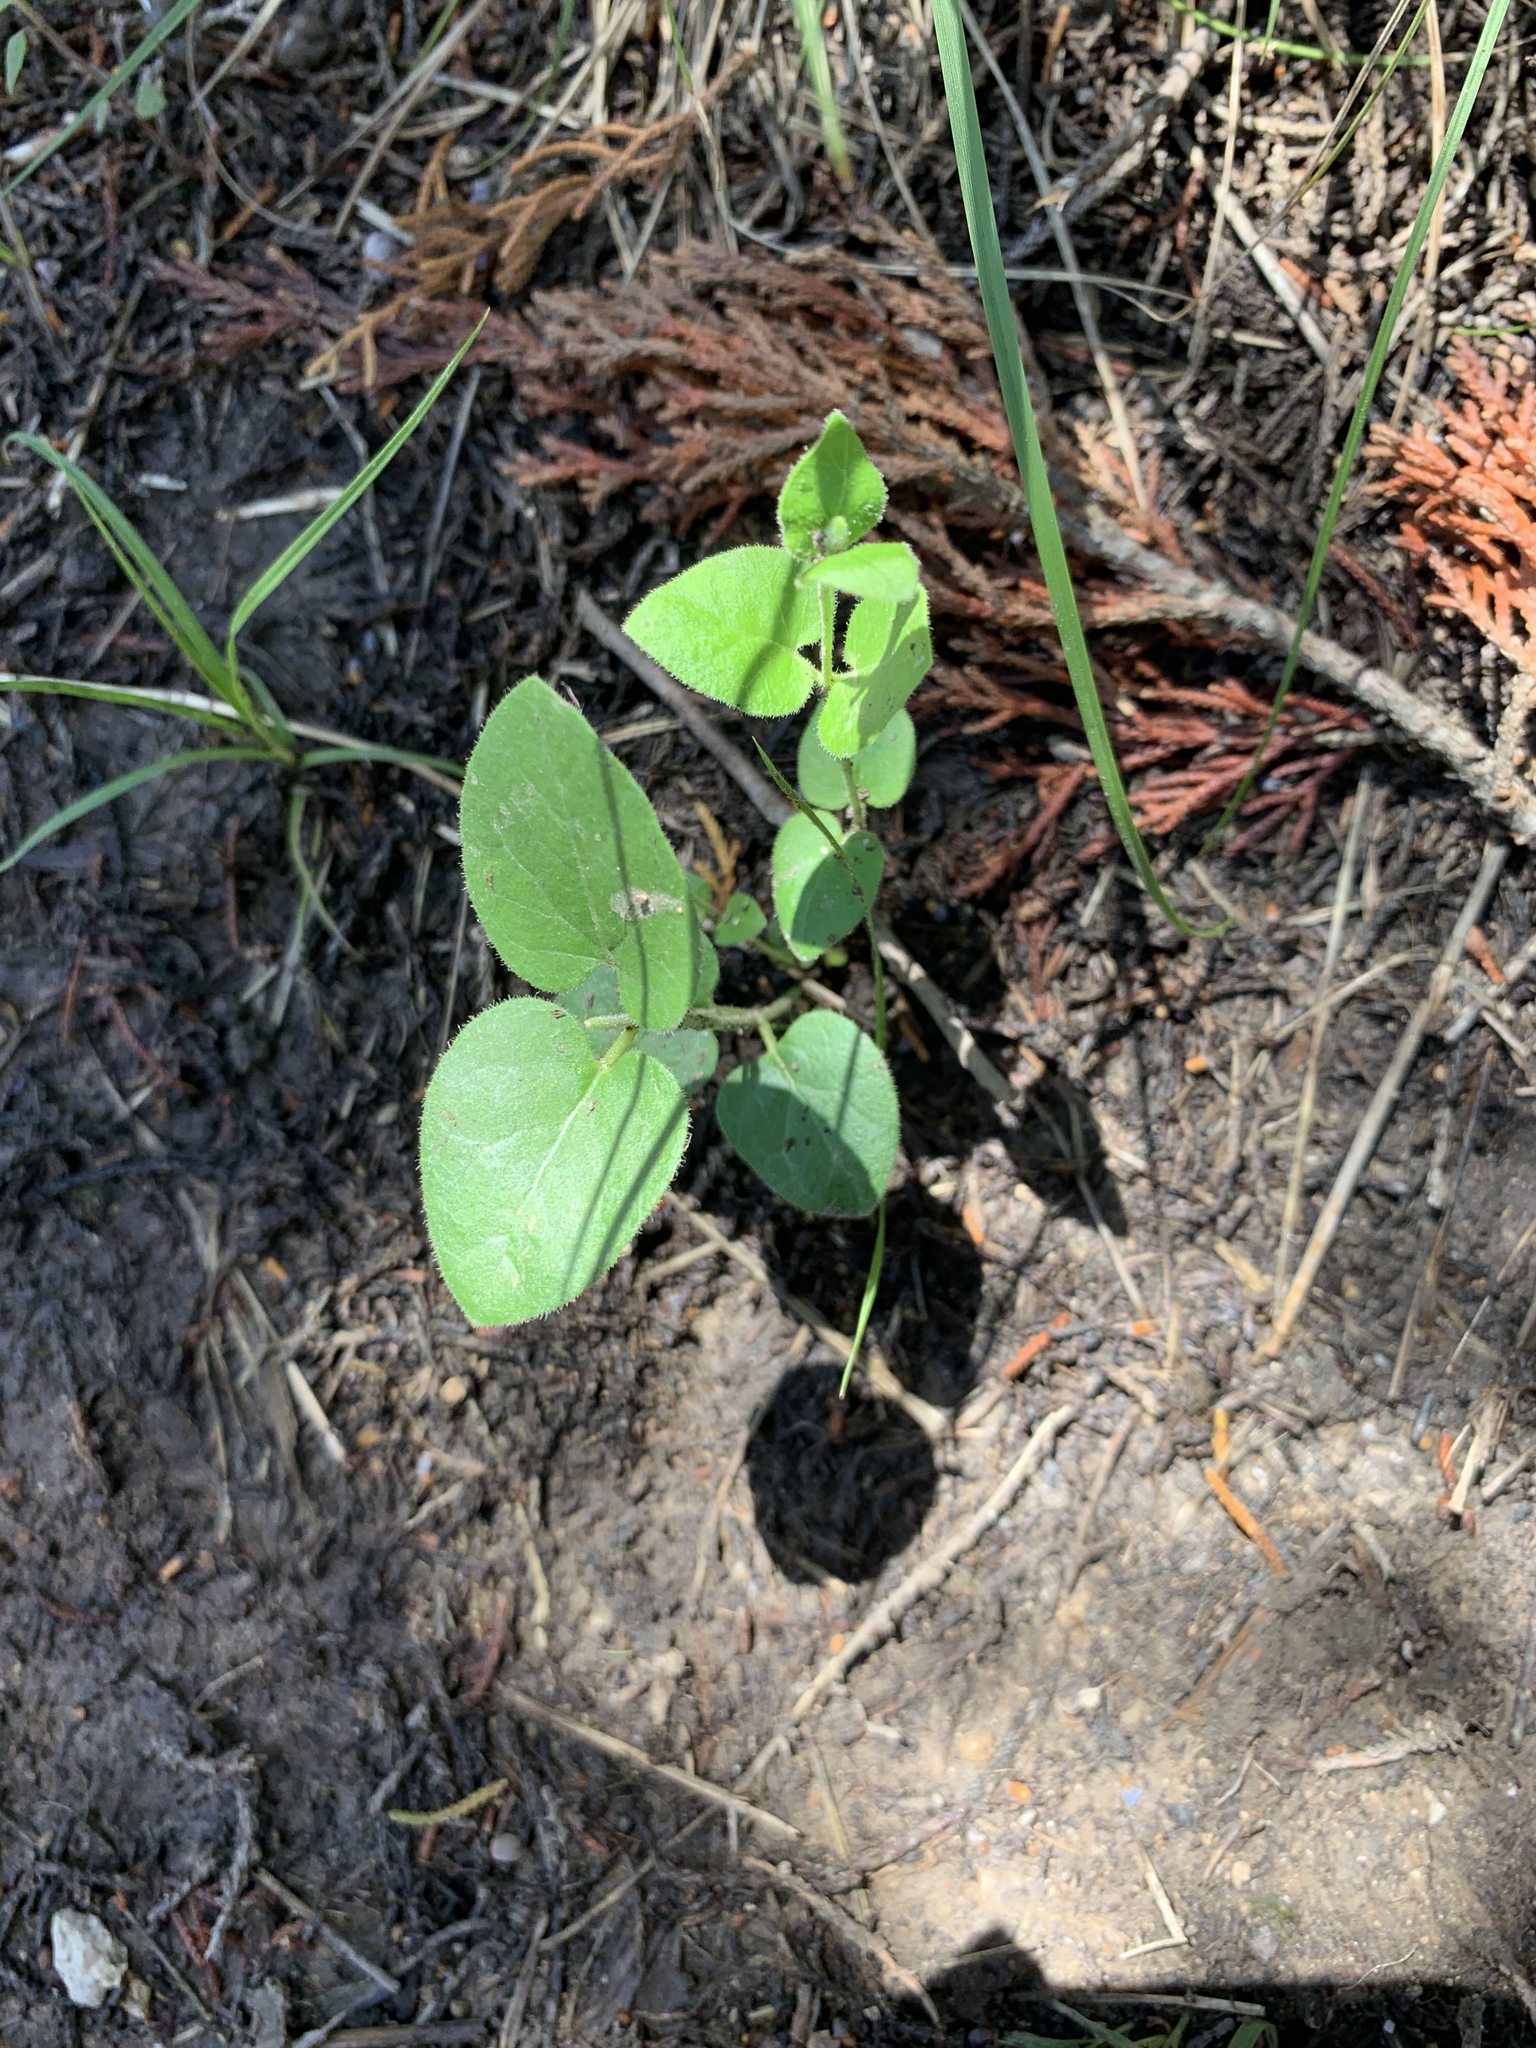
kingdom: Plantae
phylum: Tracheophyta
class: Magnoliopsida
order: Gentianales
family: Apocynaceae
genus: Chthamalia
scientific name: Chthamalia biflora
